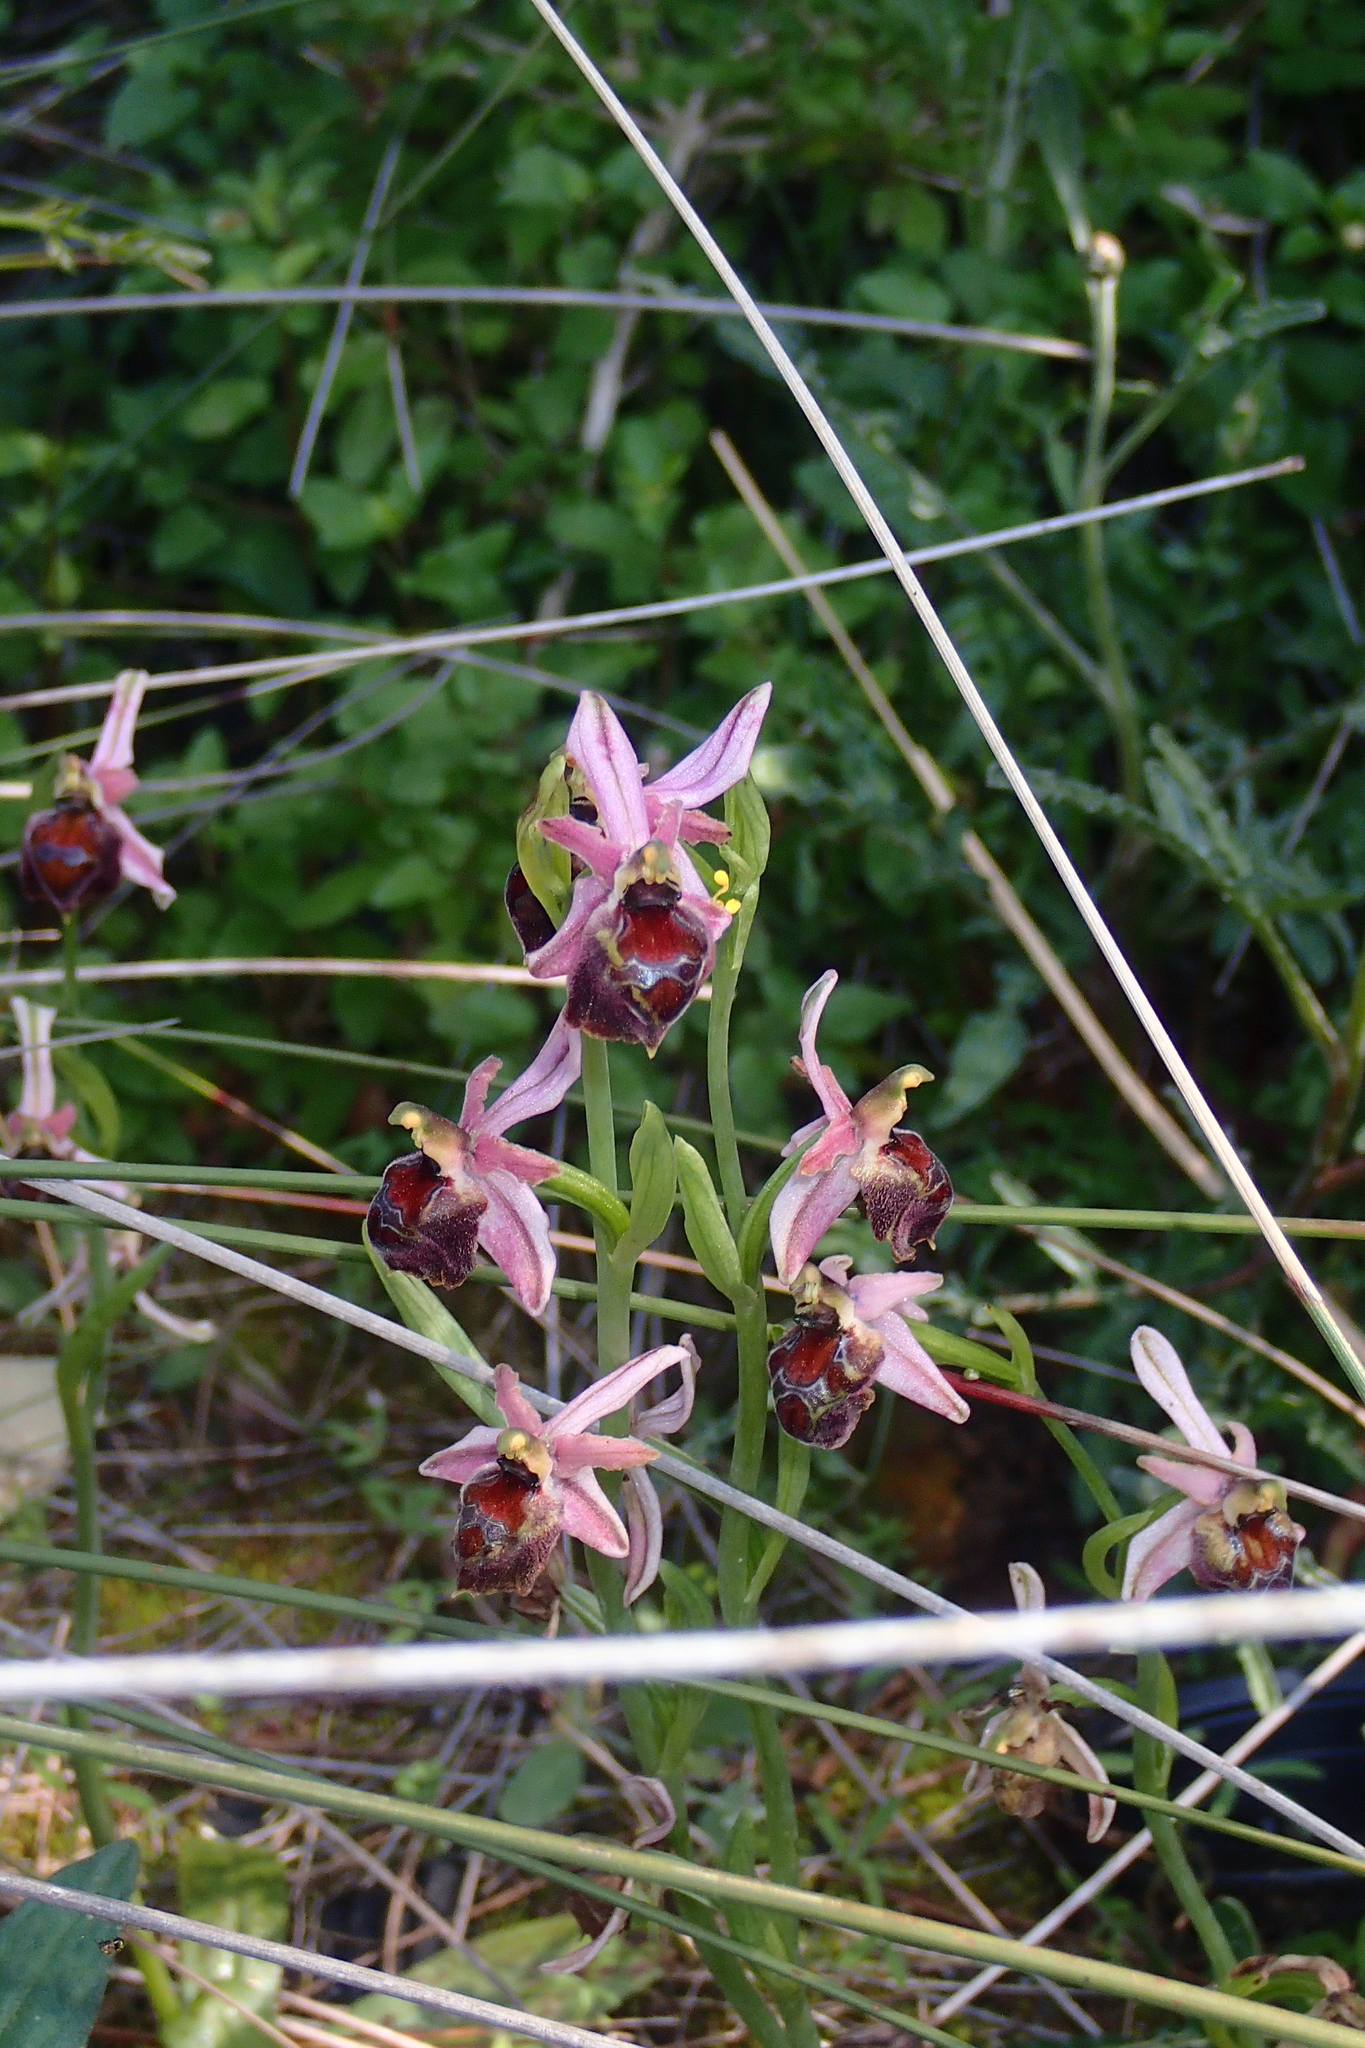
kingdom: Plantae
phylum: Tracheophyta
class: Liliopsida
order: Asparagales
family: Orchidaceae
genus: Ophrys
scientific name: Ophrys argolica
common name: Argolic ophrys
